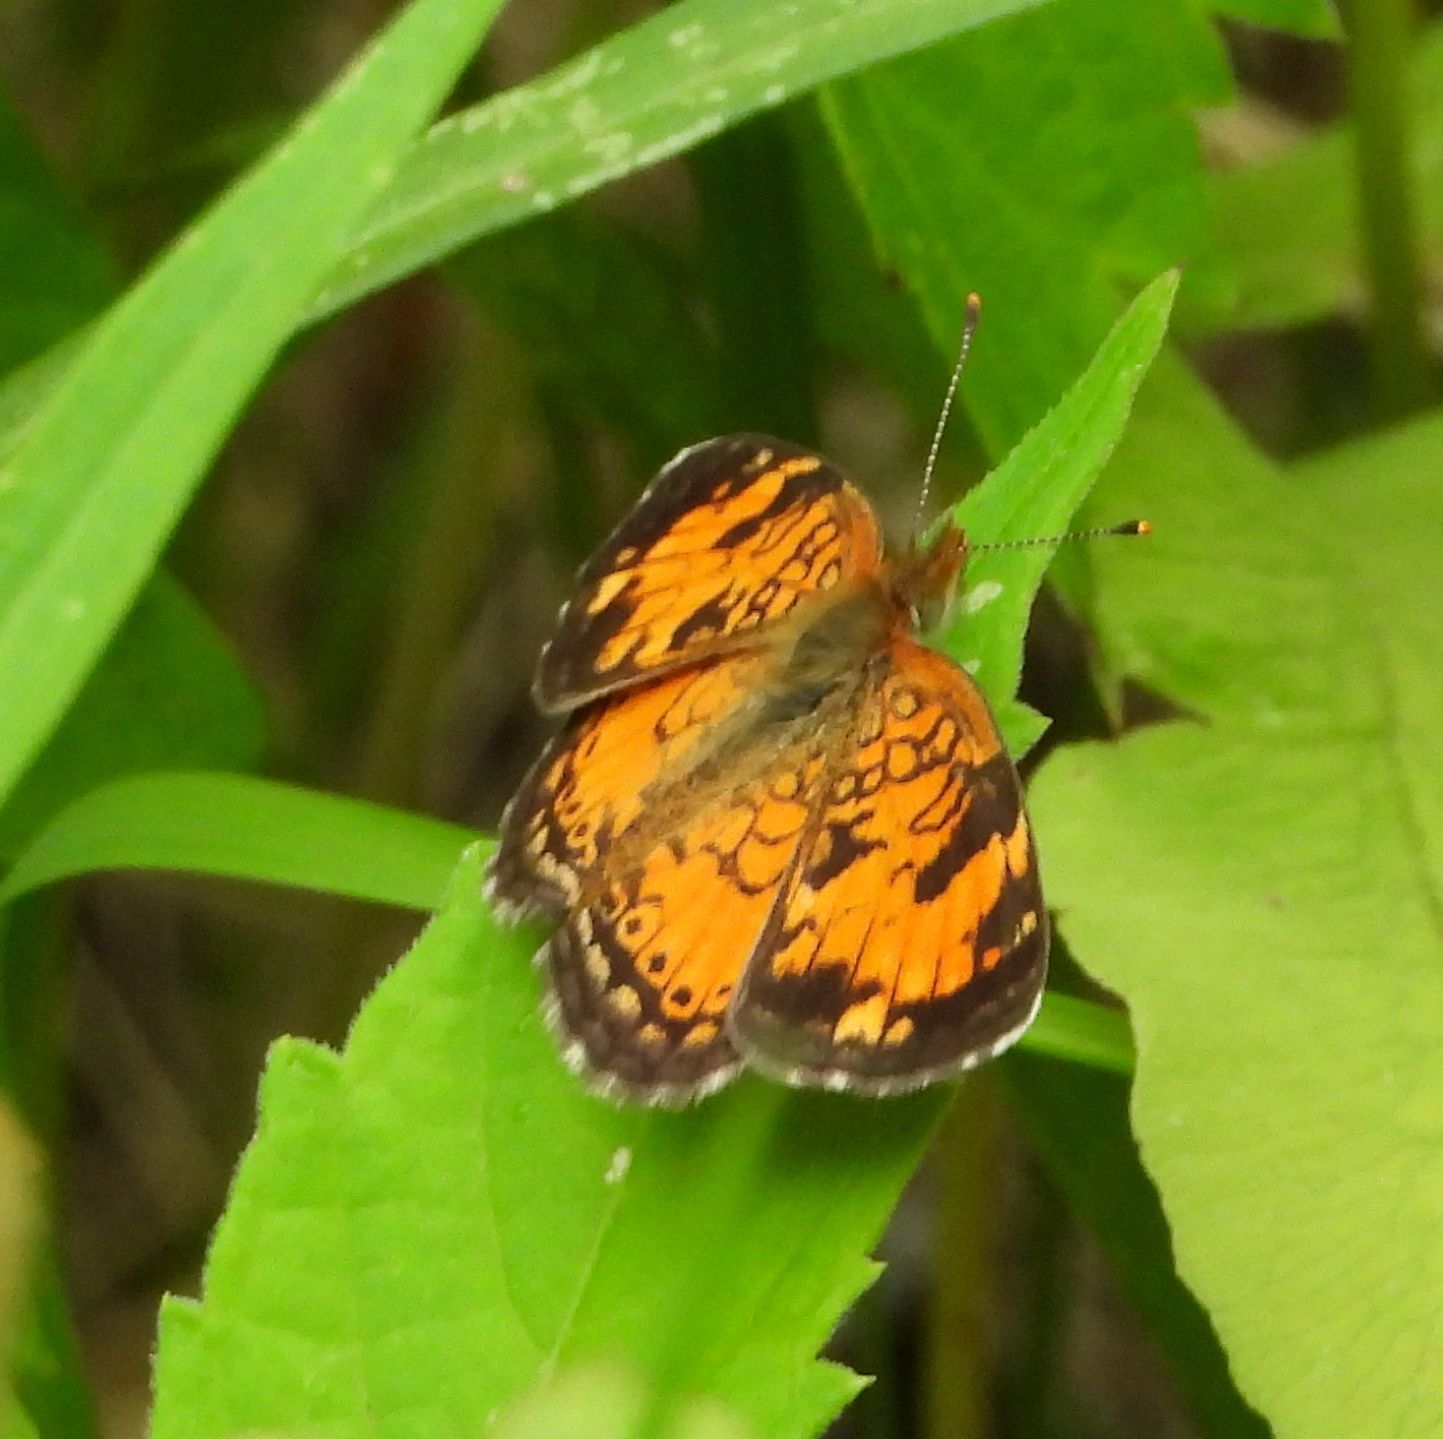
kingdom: Animalia
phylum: Arthropoda
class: Insecta
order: Lepidoptera
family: Nymphalidae
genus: Phyciodes
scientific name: Phyciodes tharos
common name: Pearl crescent
